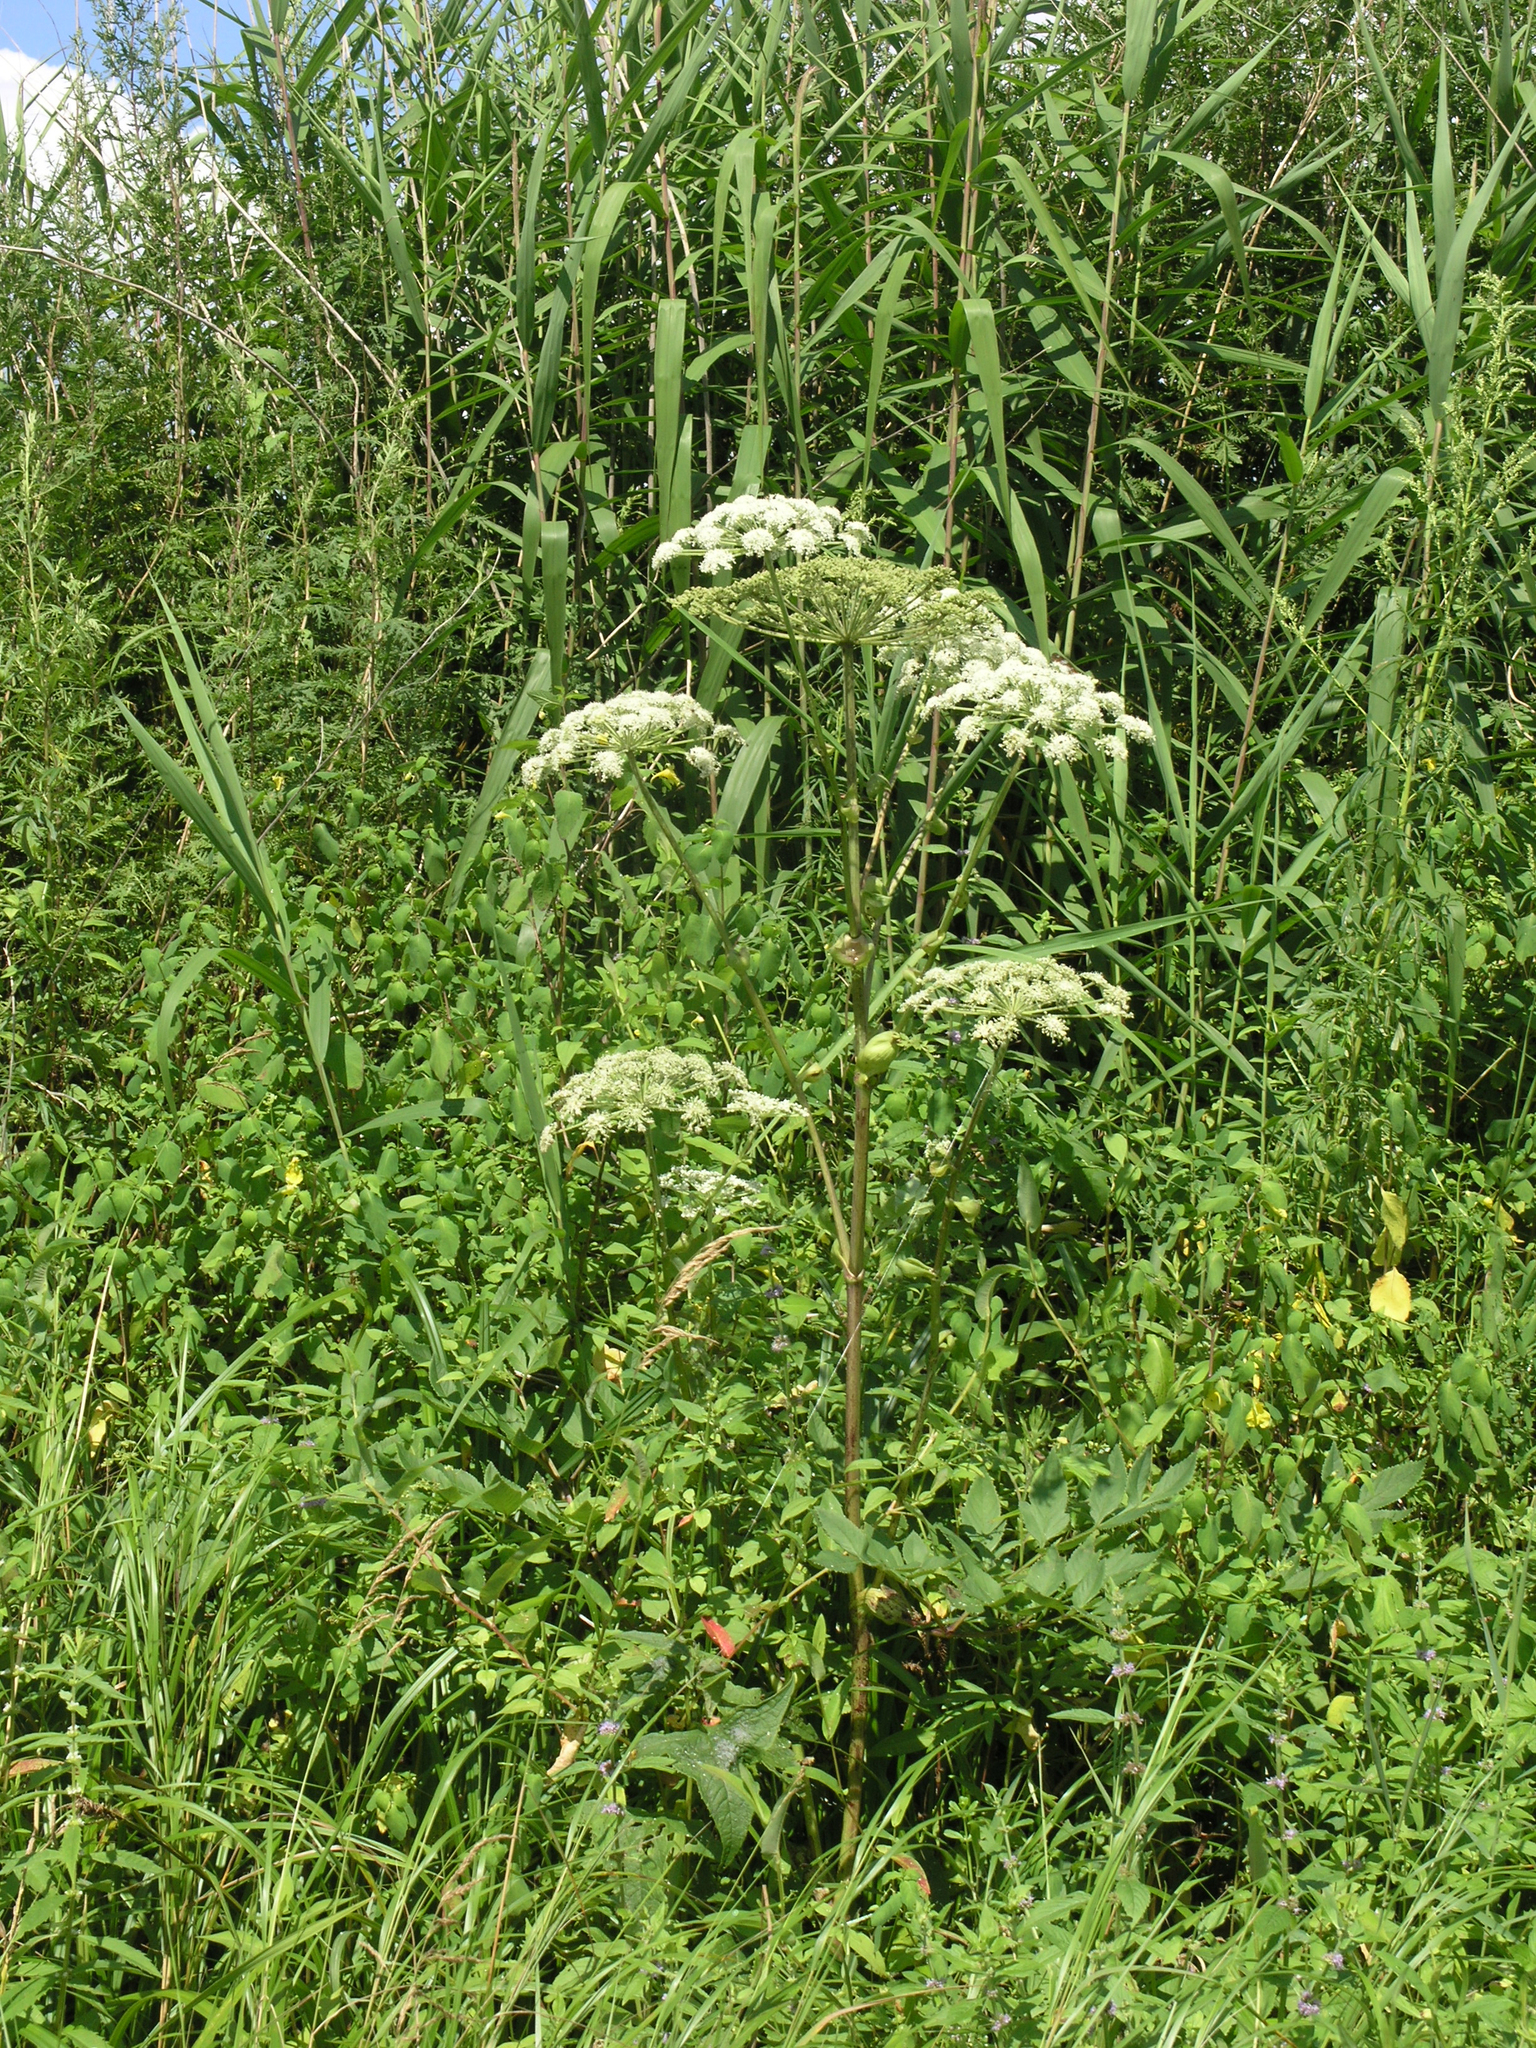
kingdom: Plantae
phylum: Tracheophyta
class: Magnoliopsida
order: Apiales
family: Apiaceae
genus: Angelica
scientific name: Angelica cincta
